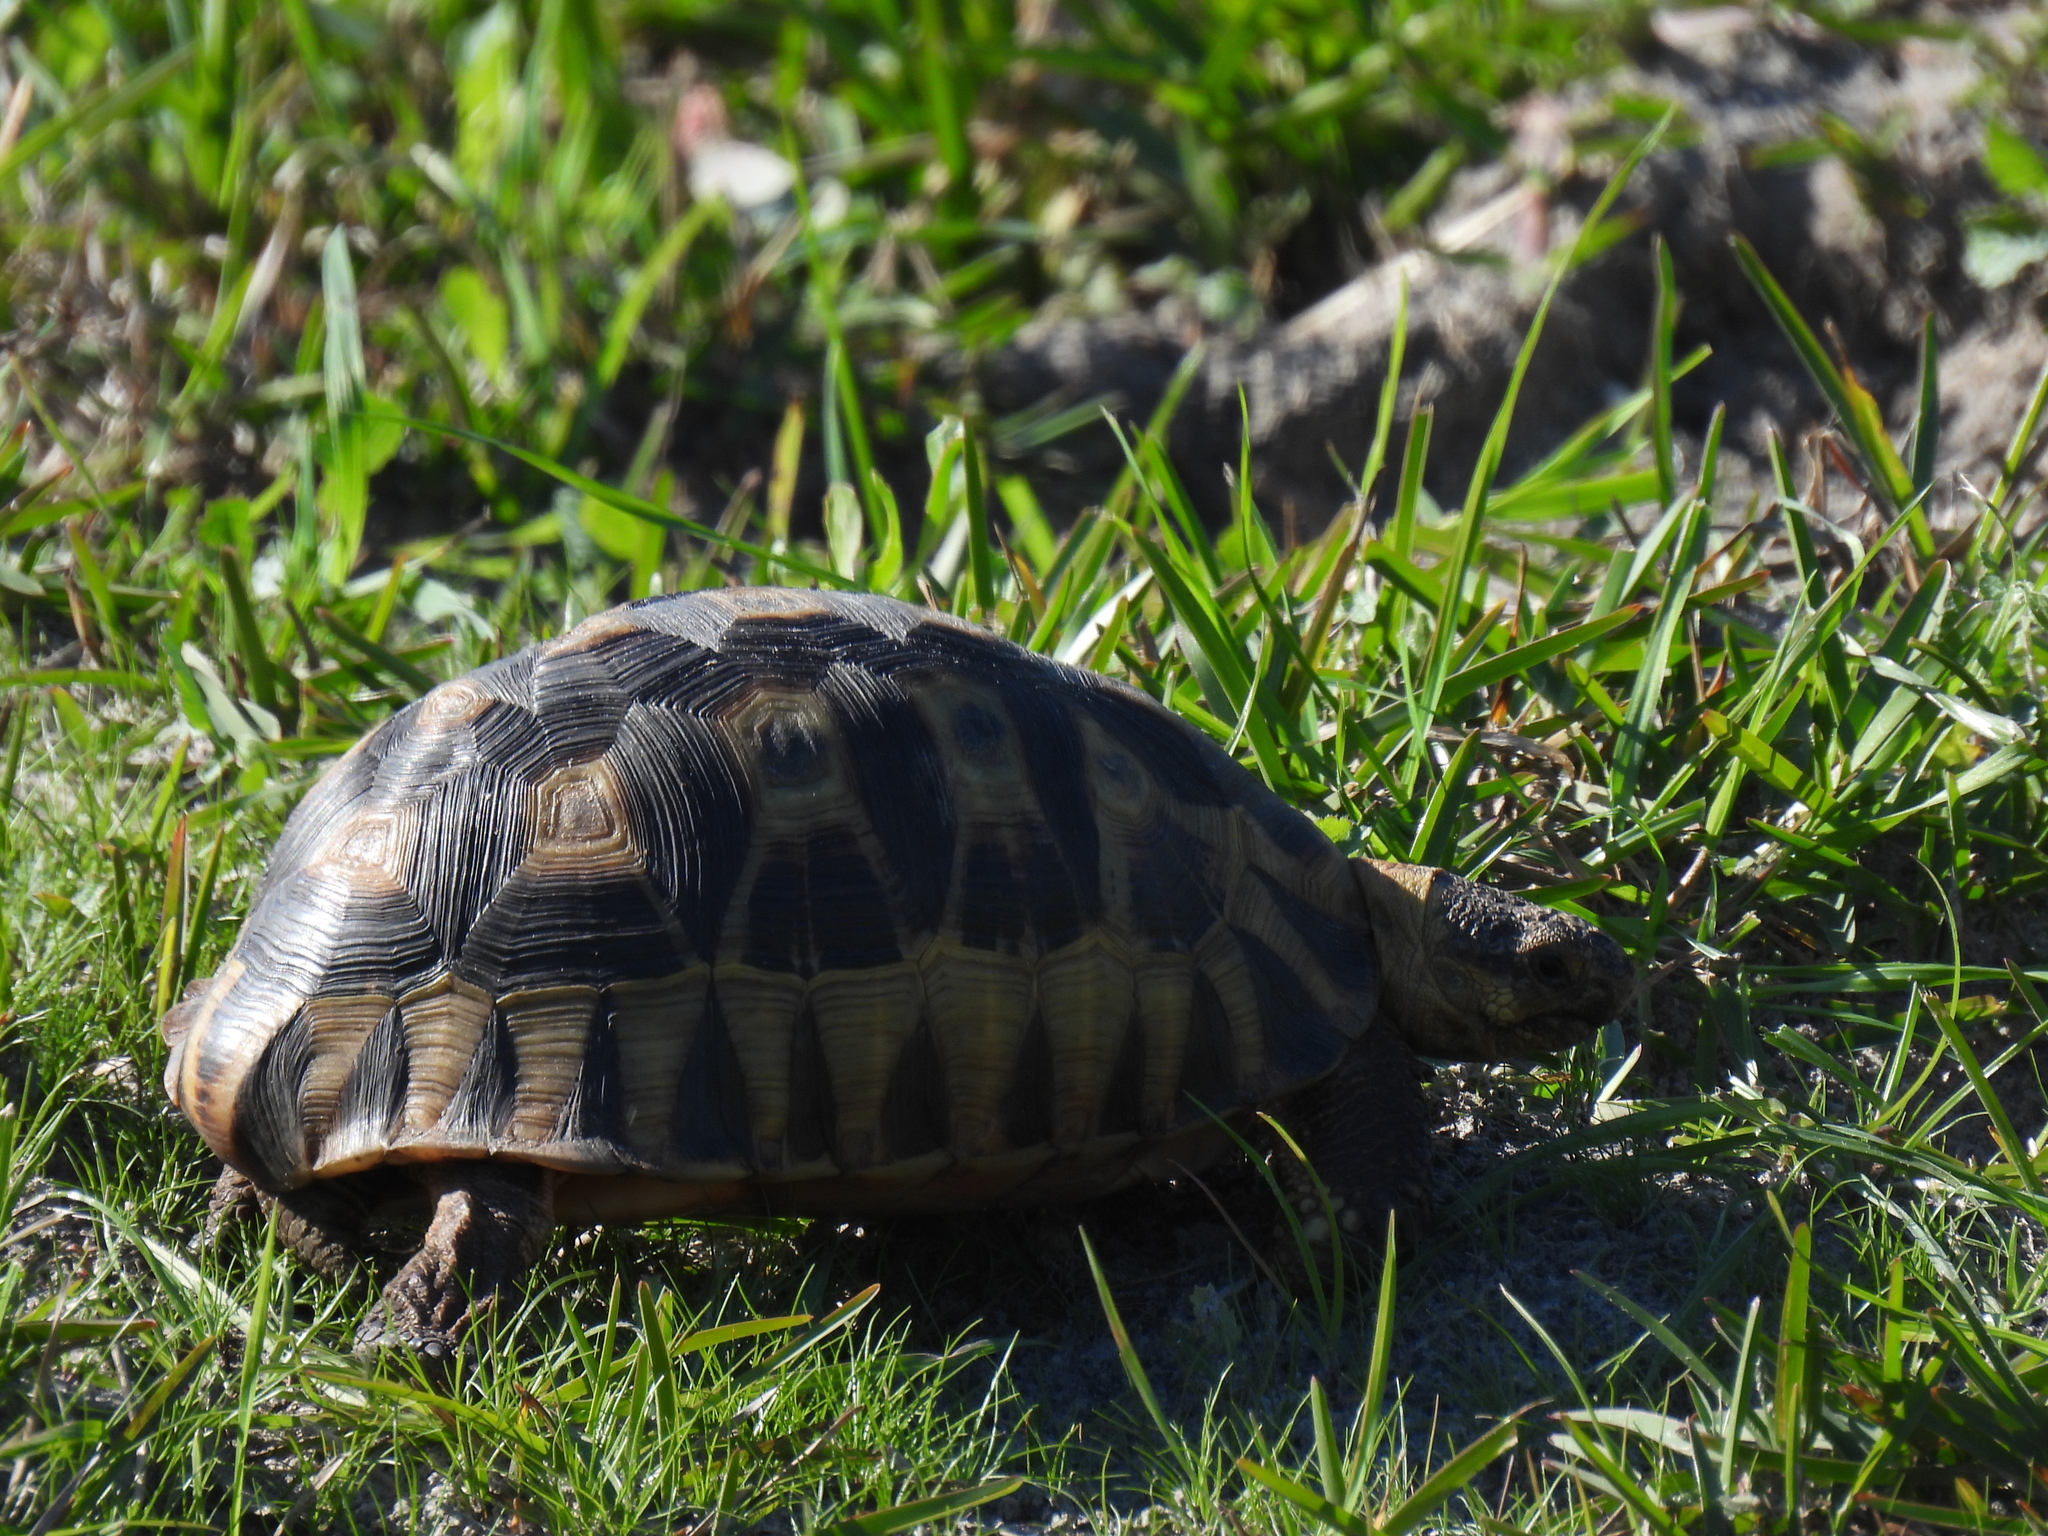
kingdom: Animalia
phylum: Chordata
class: Testudines
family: Testudinidae
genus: Chersina
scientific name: Chersina angulata
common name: South african bowsprit tortoise
